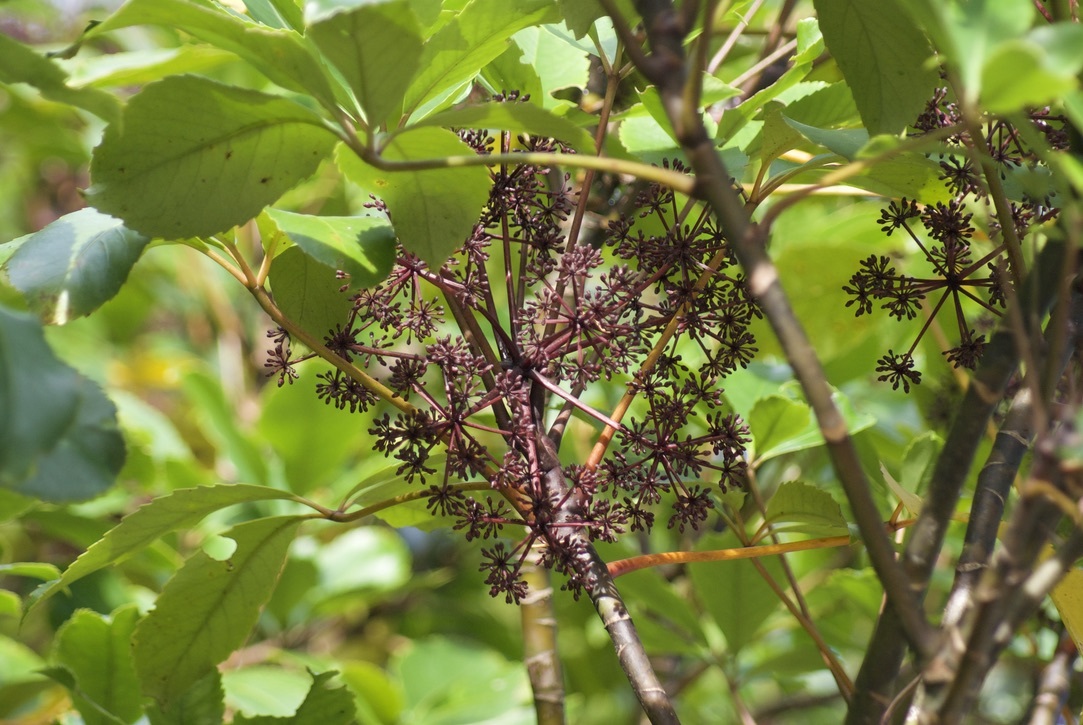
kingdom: Plantae
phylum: Tracheophyta
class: Magnoliopsida
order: Apiales
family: Araliaceae
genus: Neopanax
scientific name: Neopanax arboreus
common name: Five-fingers
